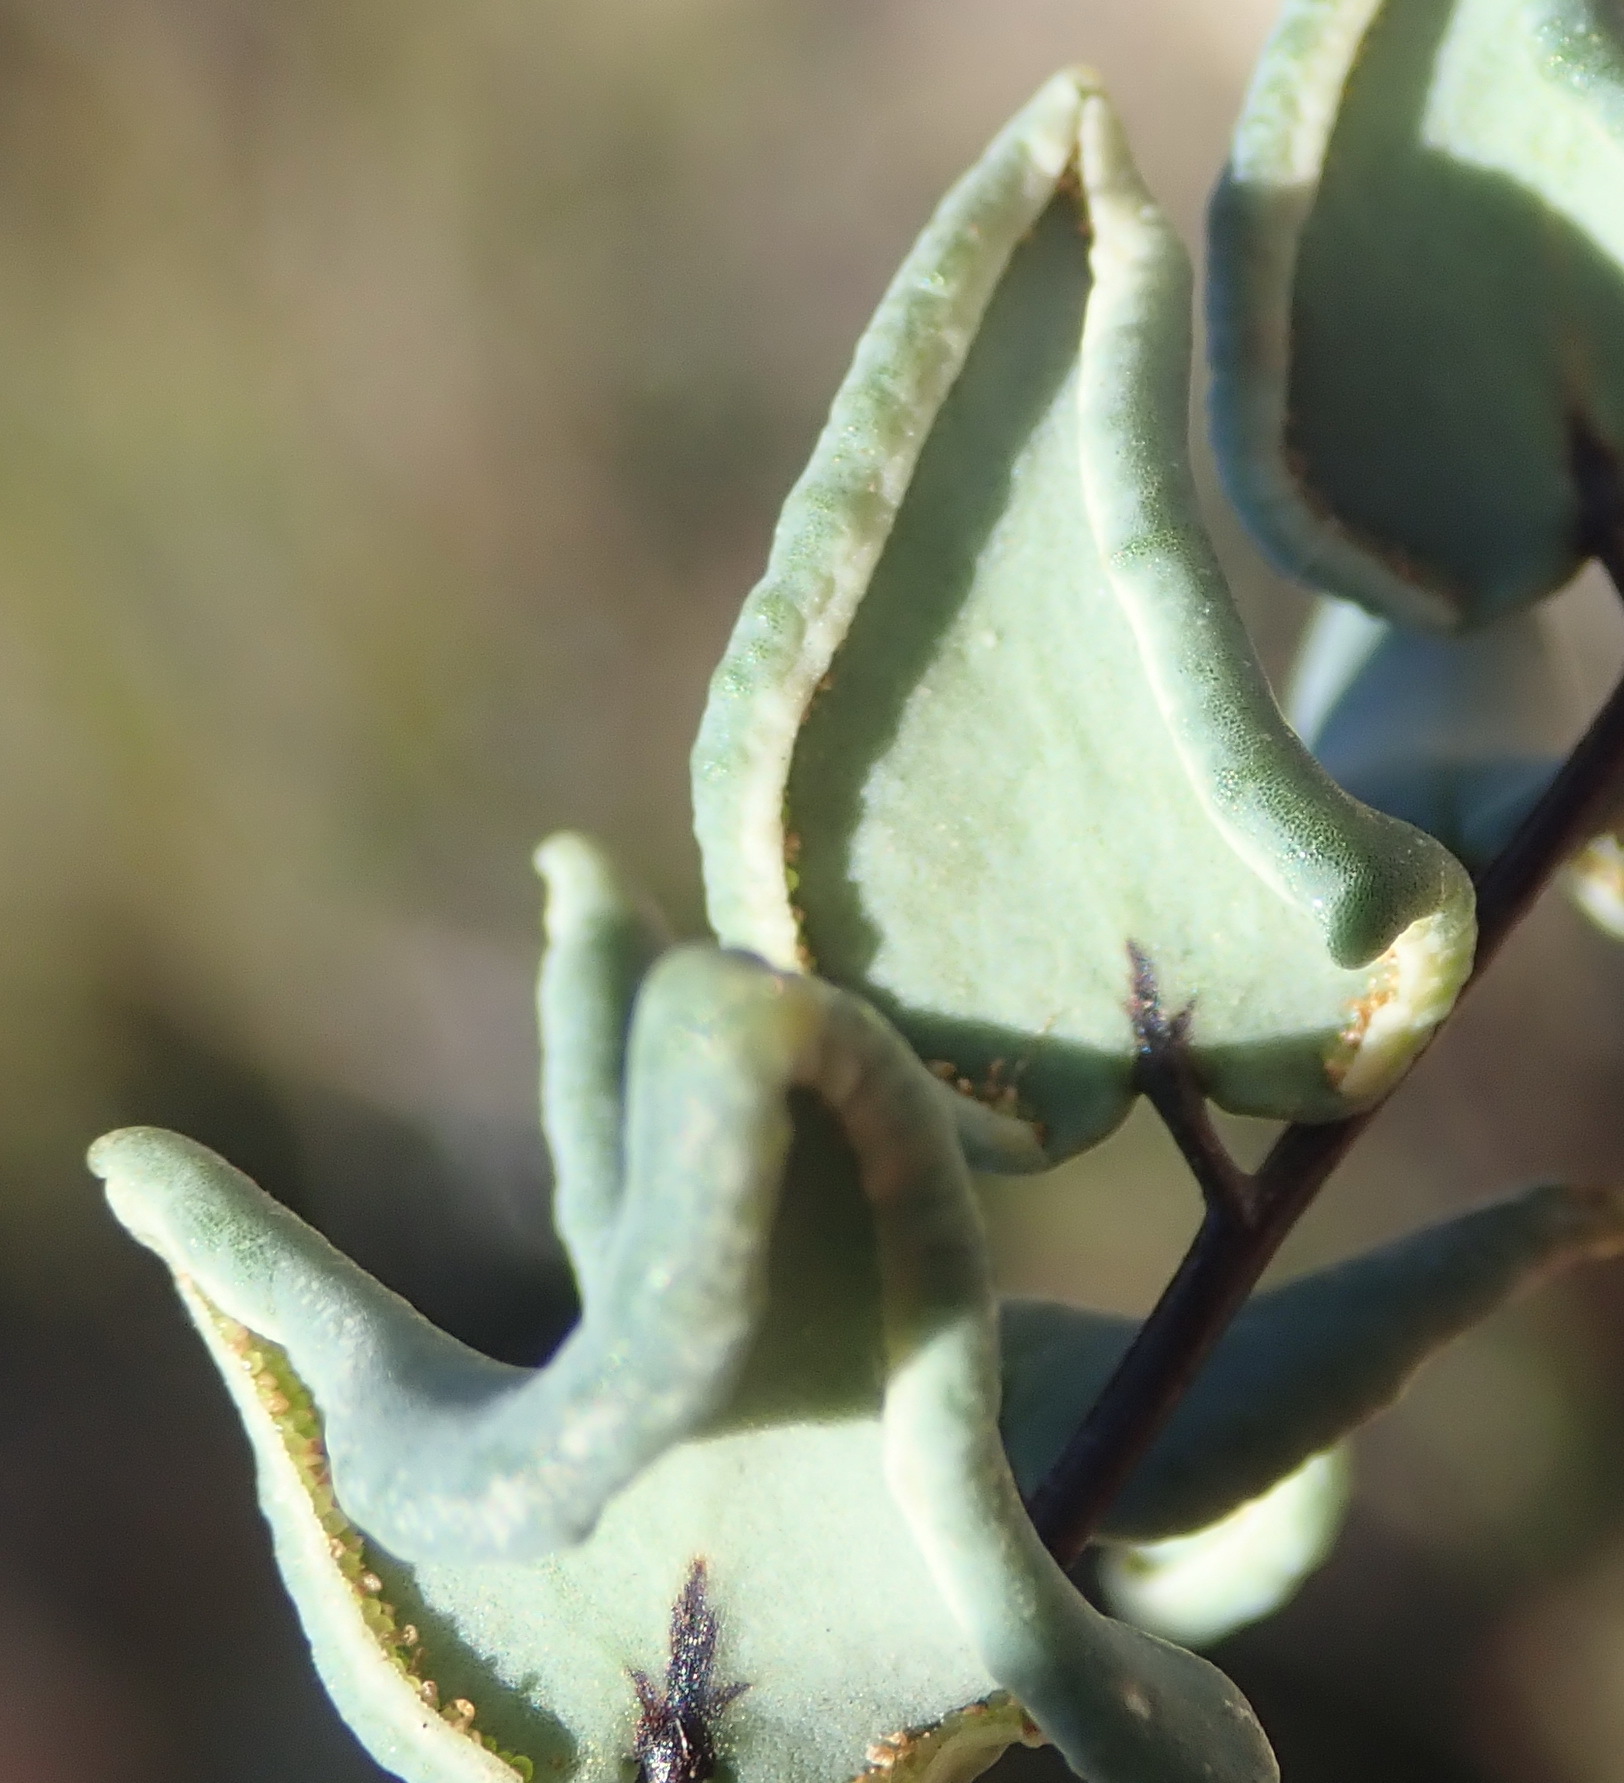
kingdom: Plantae
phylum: Tracheophyta
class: Polypodiopsida
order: Polypodiales
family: Pteridaceae
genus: Pellaea
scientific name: Pellaea leucomelas
